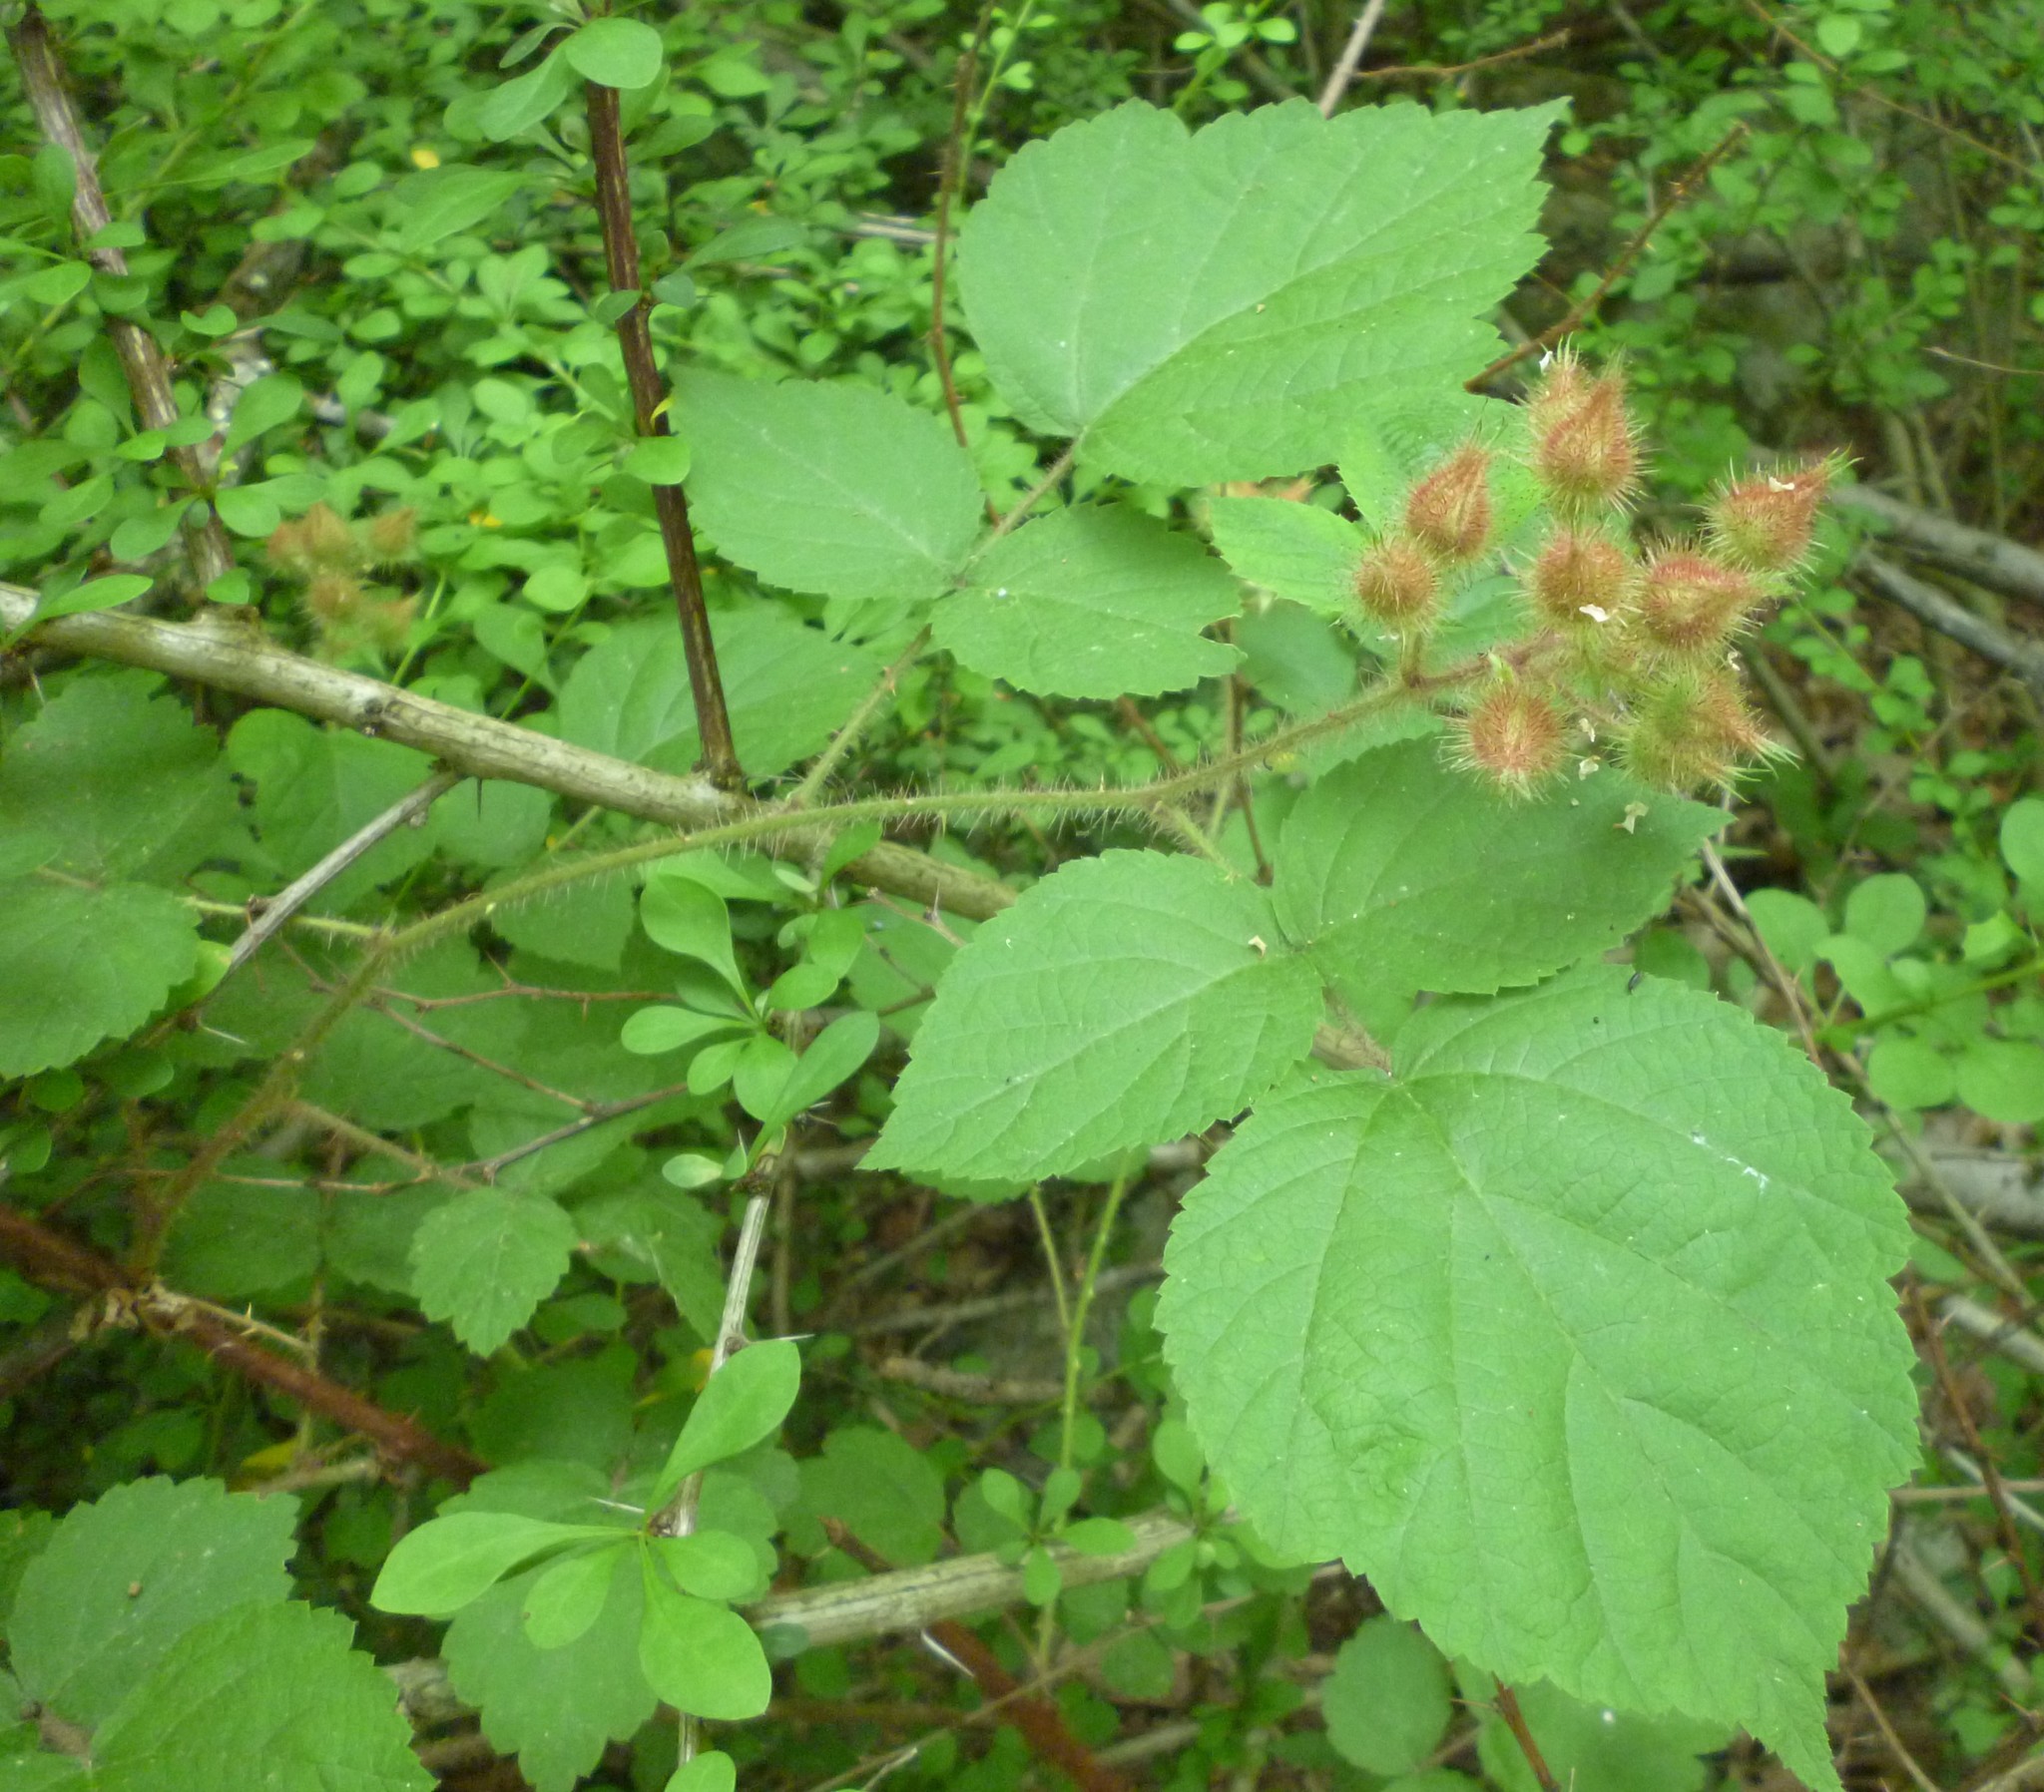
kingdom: Plantae
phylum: Tracheophyta
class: Magnoliopsida
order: Rosales
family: Rosaceae
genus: Rubus
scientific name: Rubus phoenicolasius
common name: Japanese wineberry
